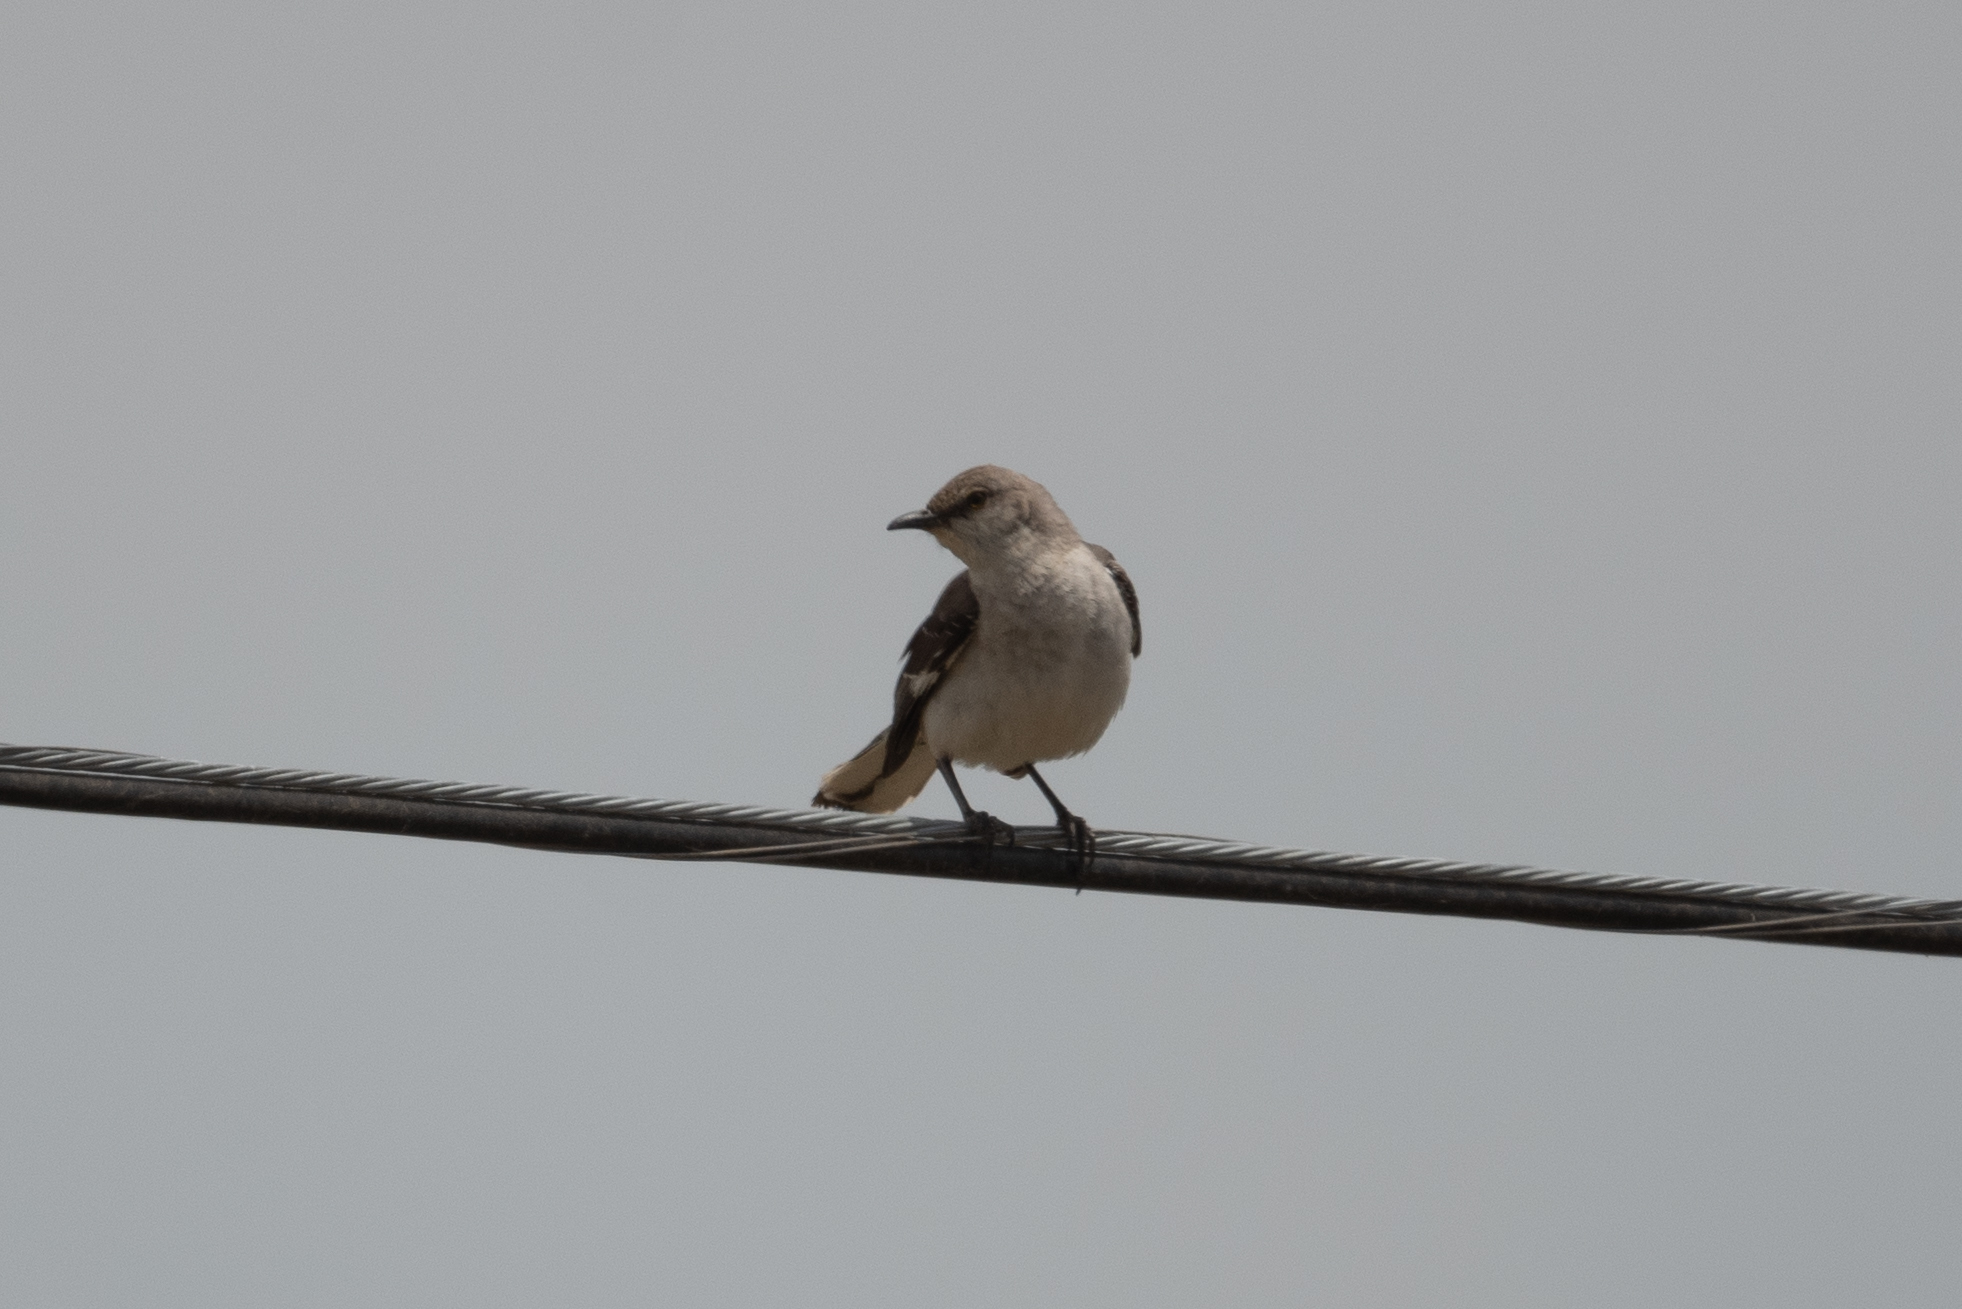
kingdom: Animalia
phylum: Chordata
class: Aves
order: Passeriformes
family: Mimidae
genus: Mimus
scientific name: Mimus polyglottos
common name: Northern mockingbird
